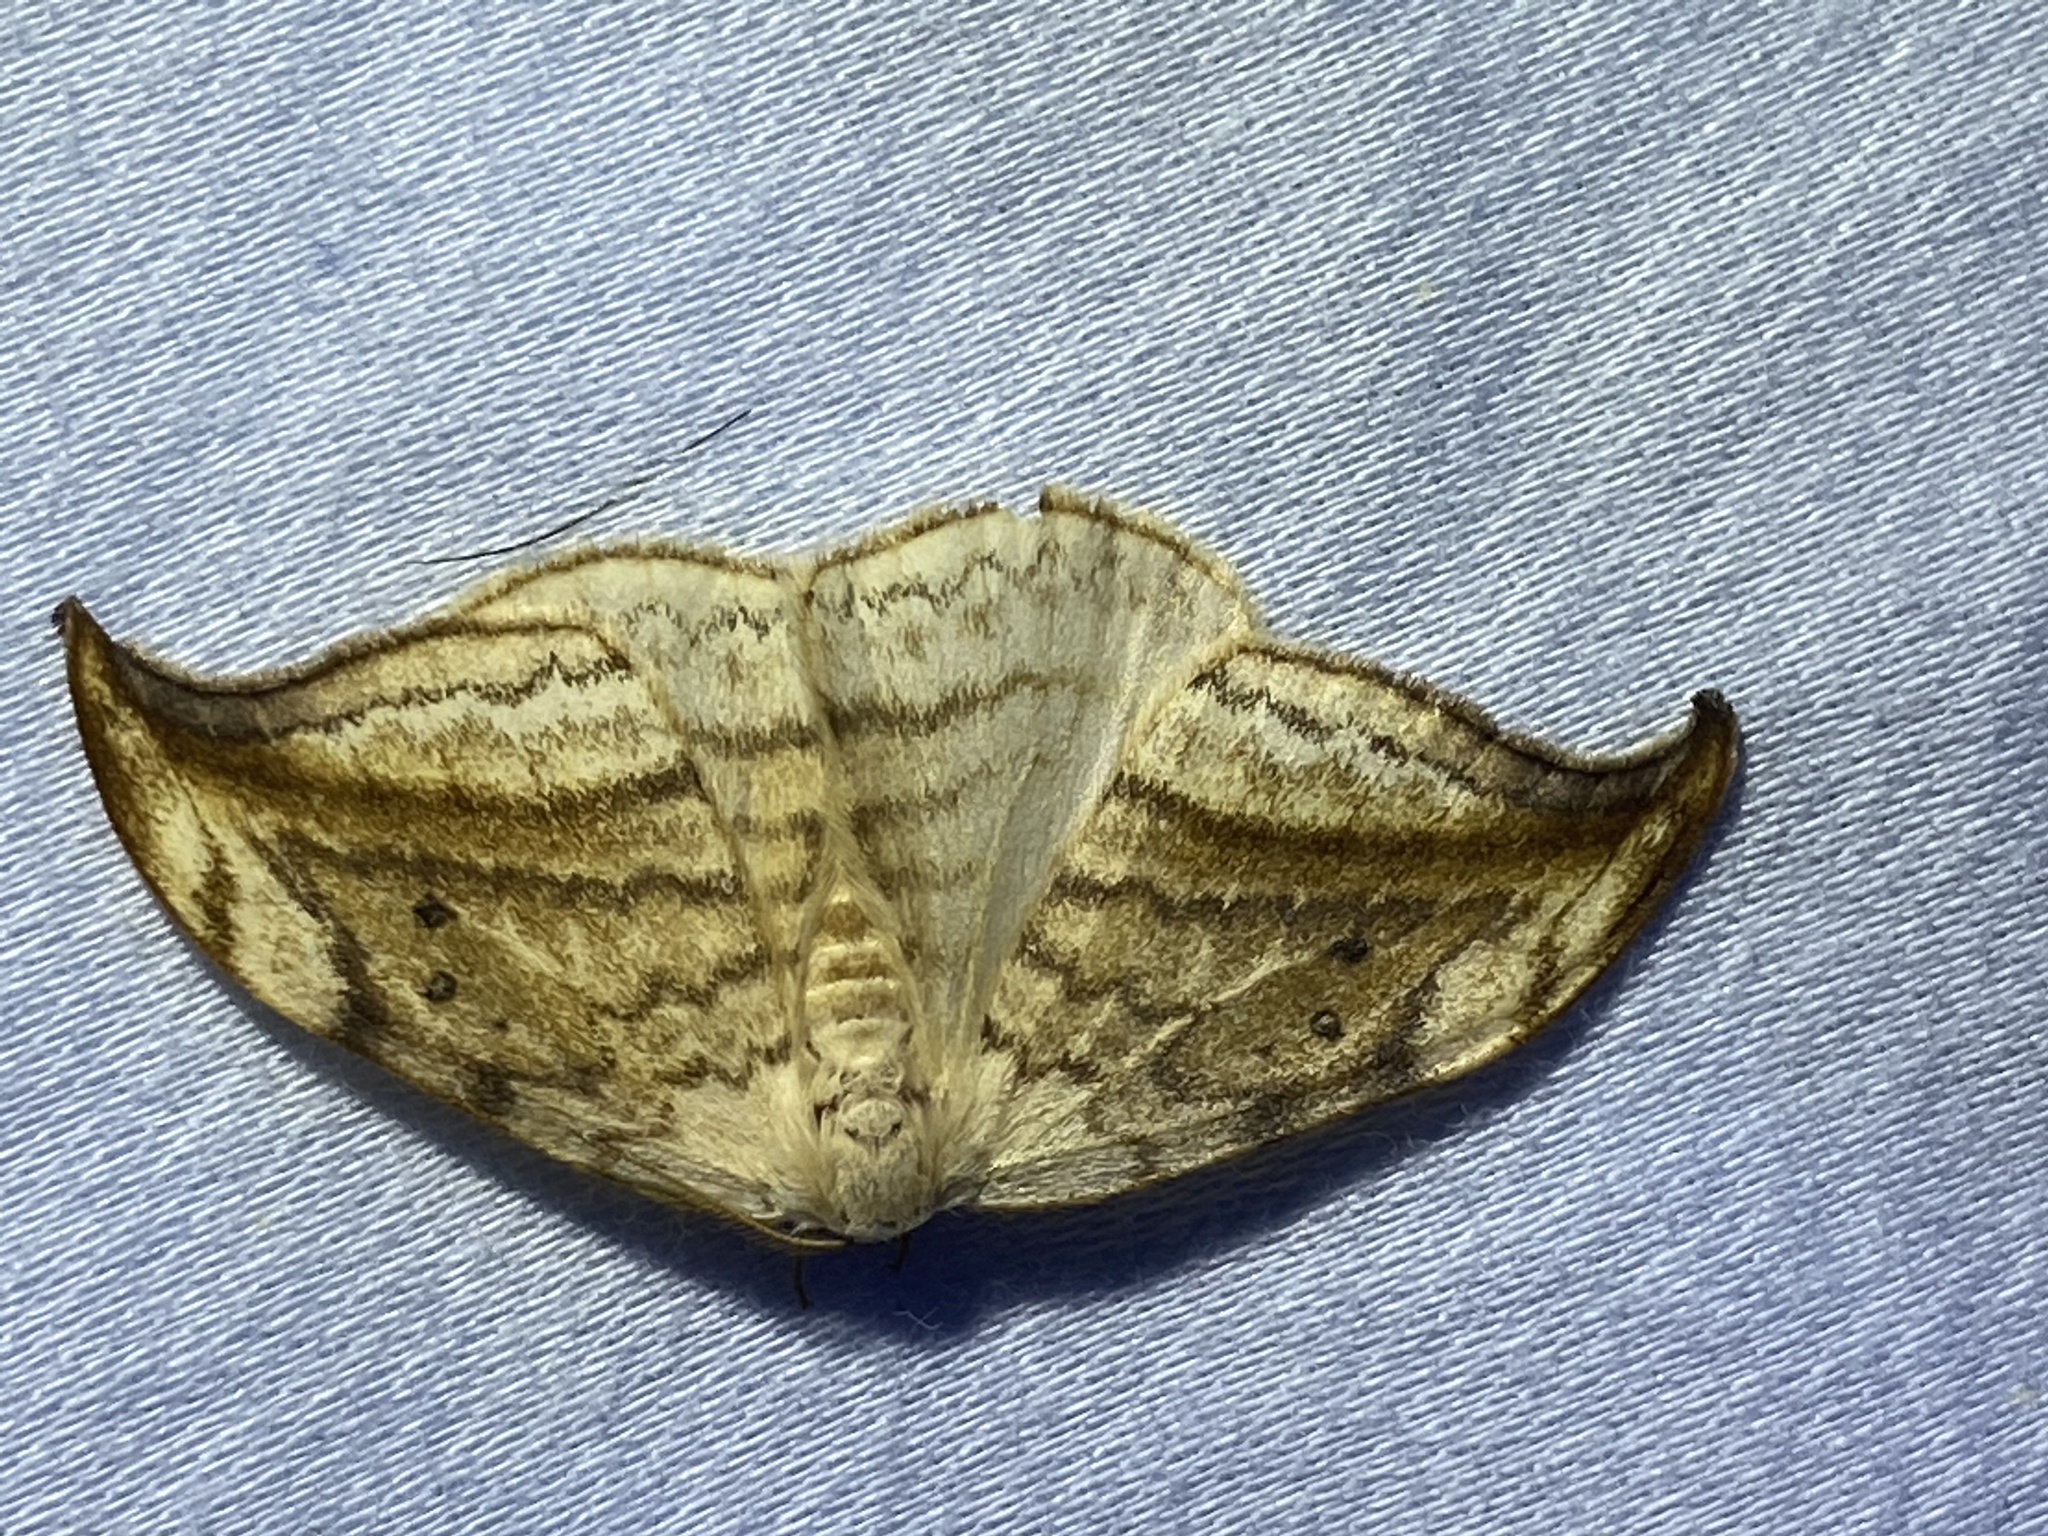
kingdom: Animalia
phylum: Arthropoda
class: Insecta
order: Lepidoptera
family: Drepanidae
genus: Drepana
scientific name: Drepana arcuata
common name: Arched hooktip moth
